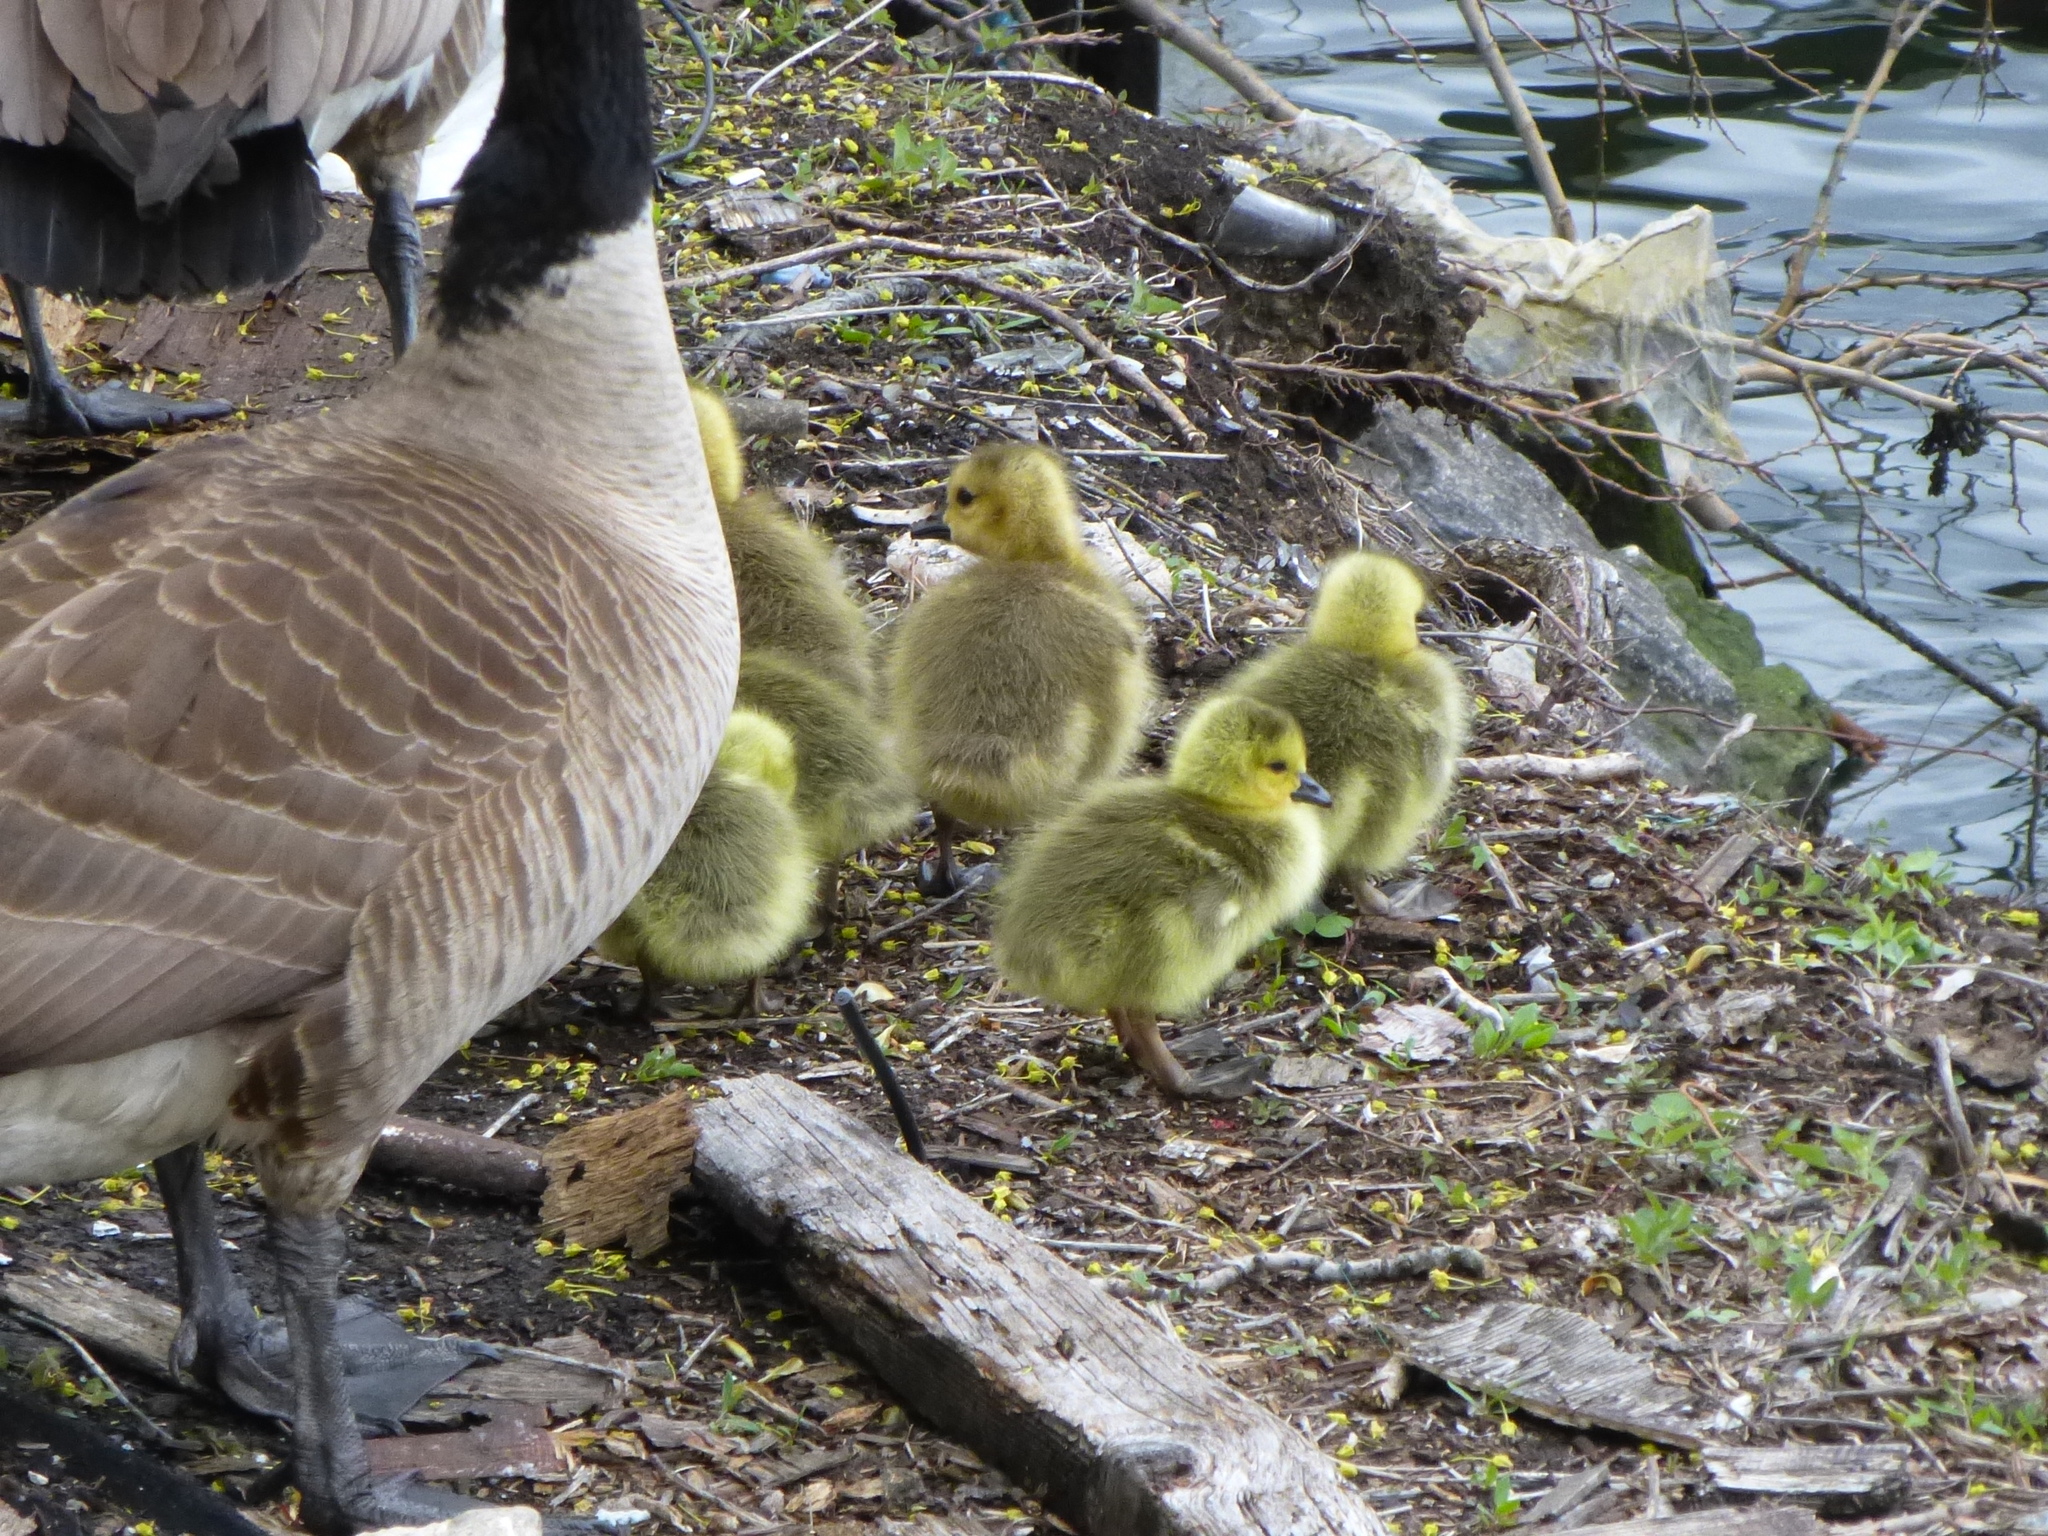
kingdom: Animalia
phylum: Chordata
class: Aves
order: Anseriformes
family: Anatidae
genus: Branta
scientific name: Branta canadensis
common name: Canada goose
